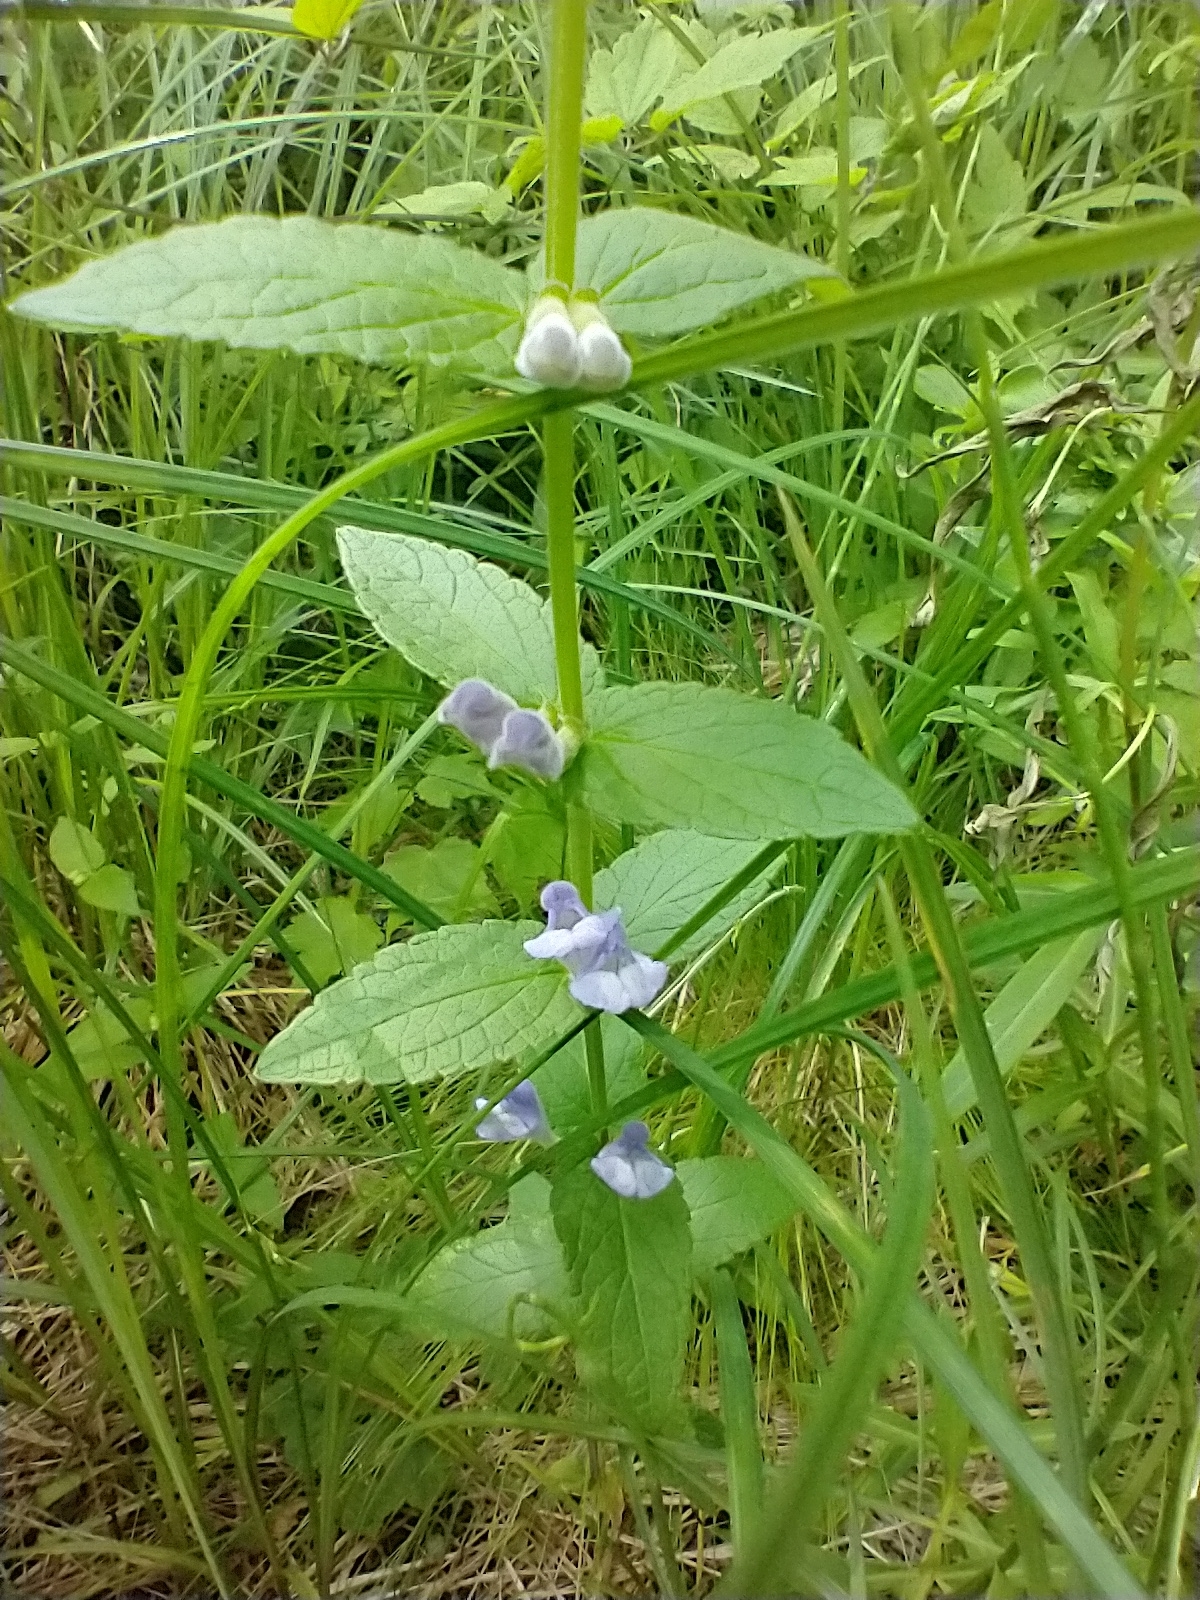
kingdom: Plantae
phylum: Tracheophyta
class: Magnoliopsida
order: Lamiales
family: Lamiaceae
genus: Scutellaria
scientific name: Scutellaria galericulata
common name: Skullcap
